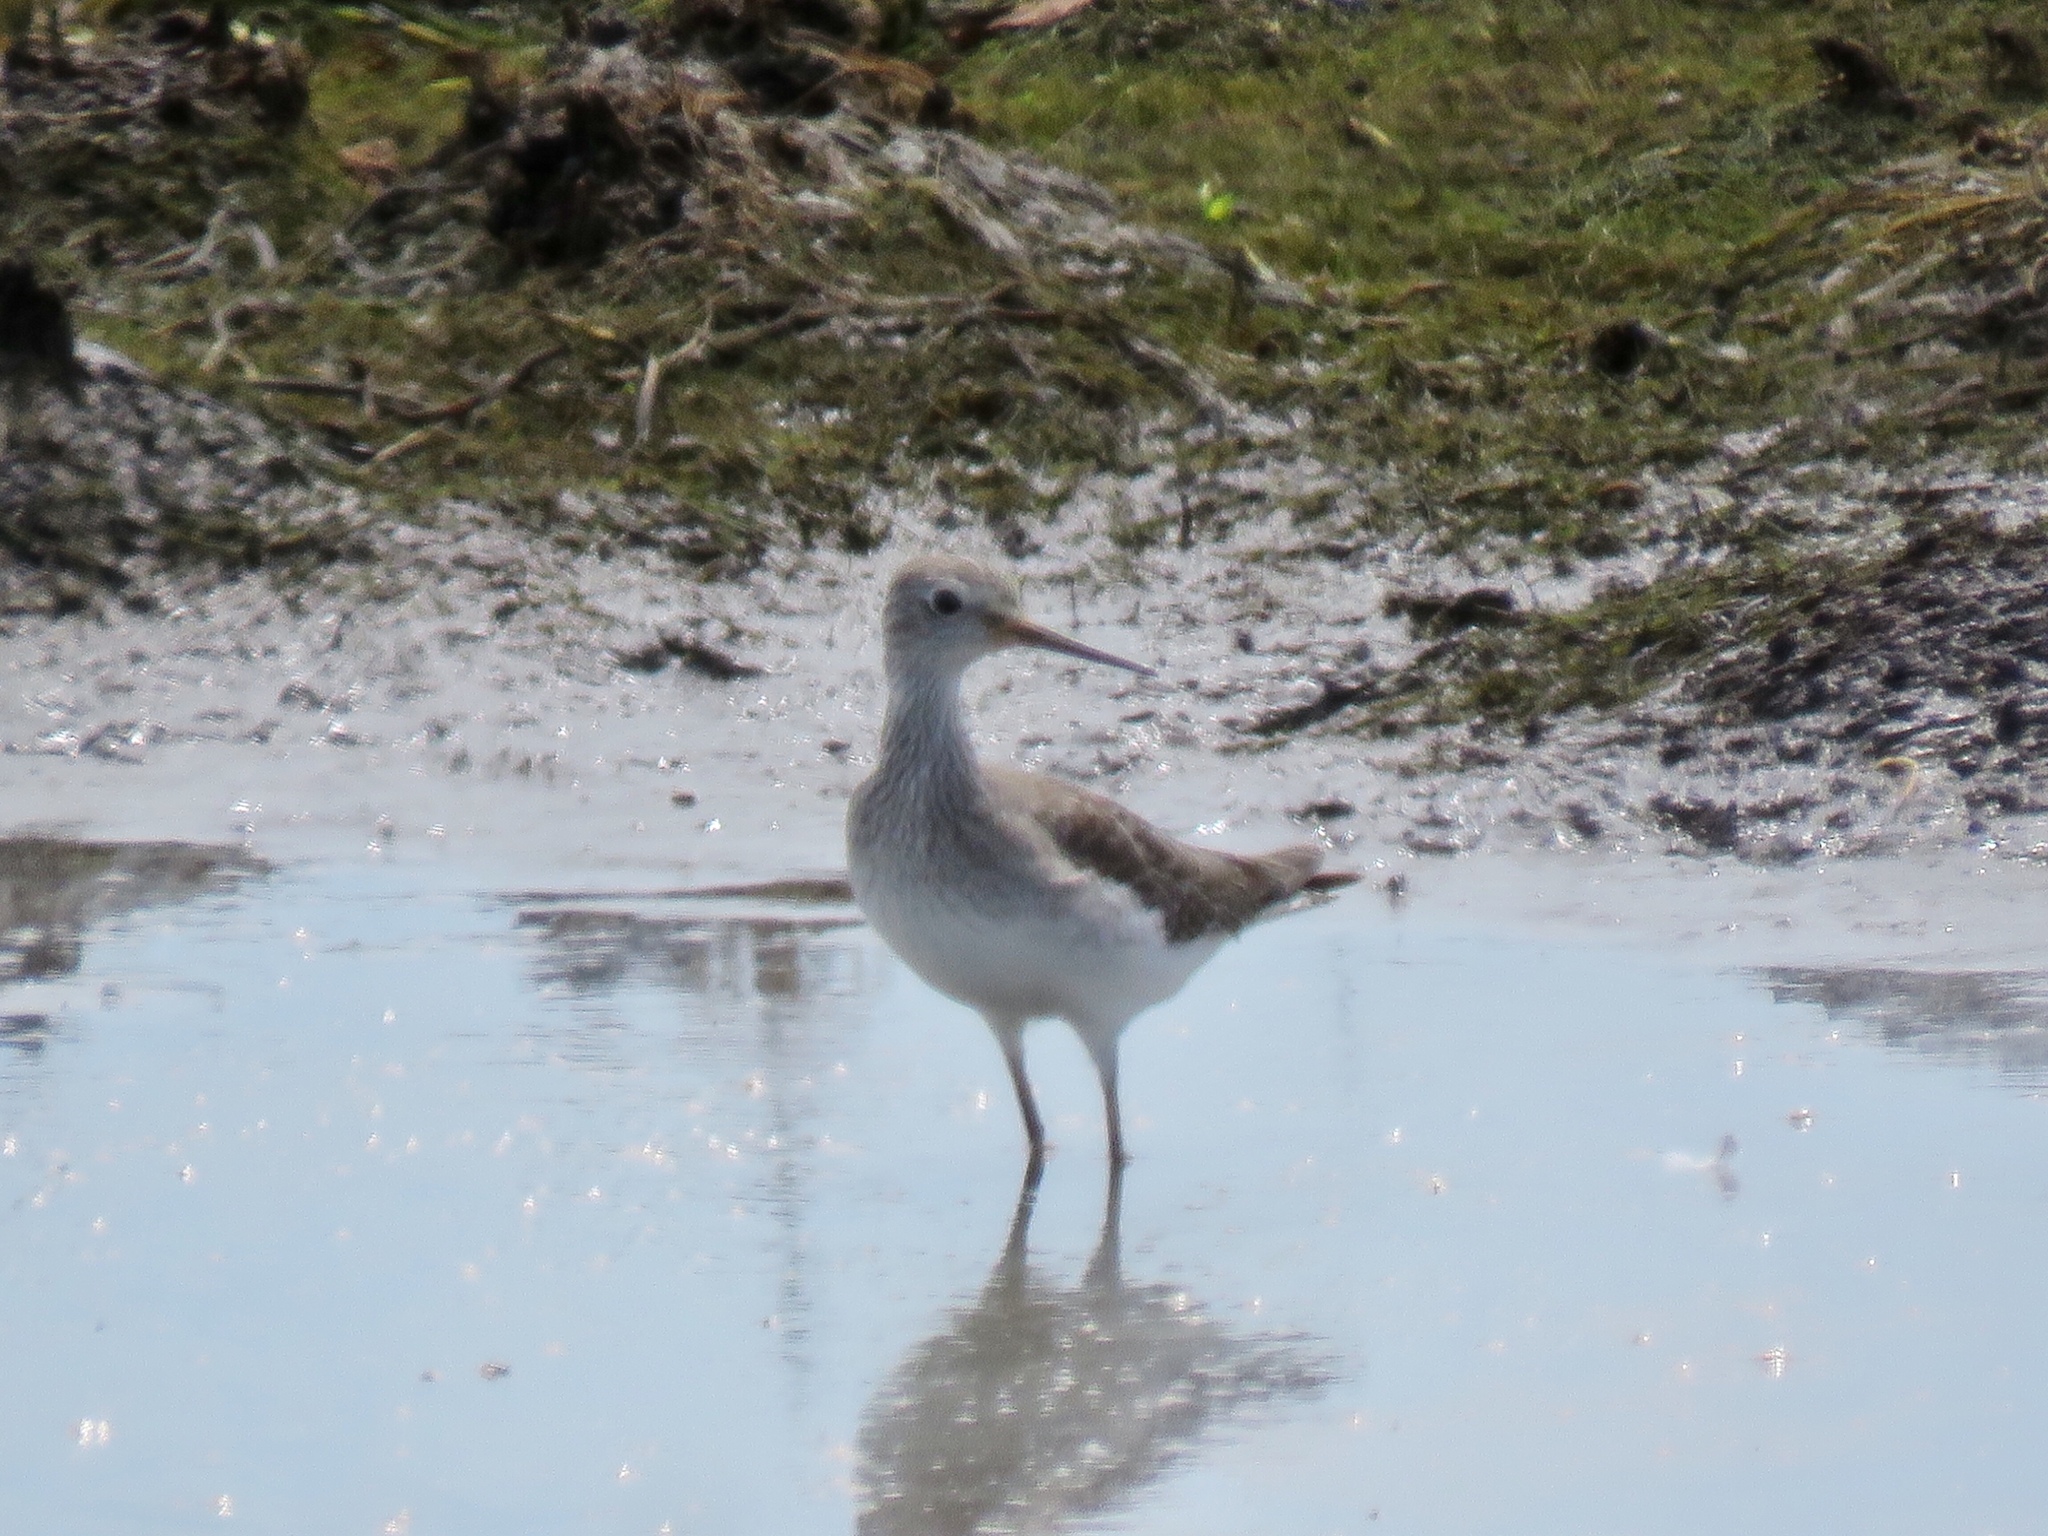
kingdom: Animalia
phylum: Chordata
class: Aves
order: Charadriiformes
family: Scolopacidae
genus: Tringa
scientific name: Tringa flavipes
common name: Lesser yellowlegs
